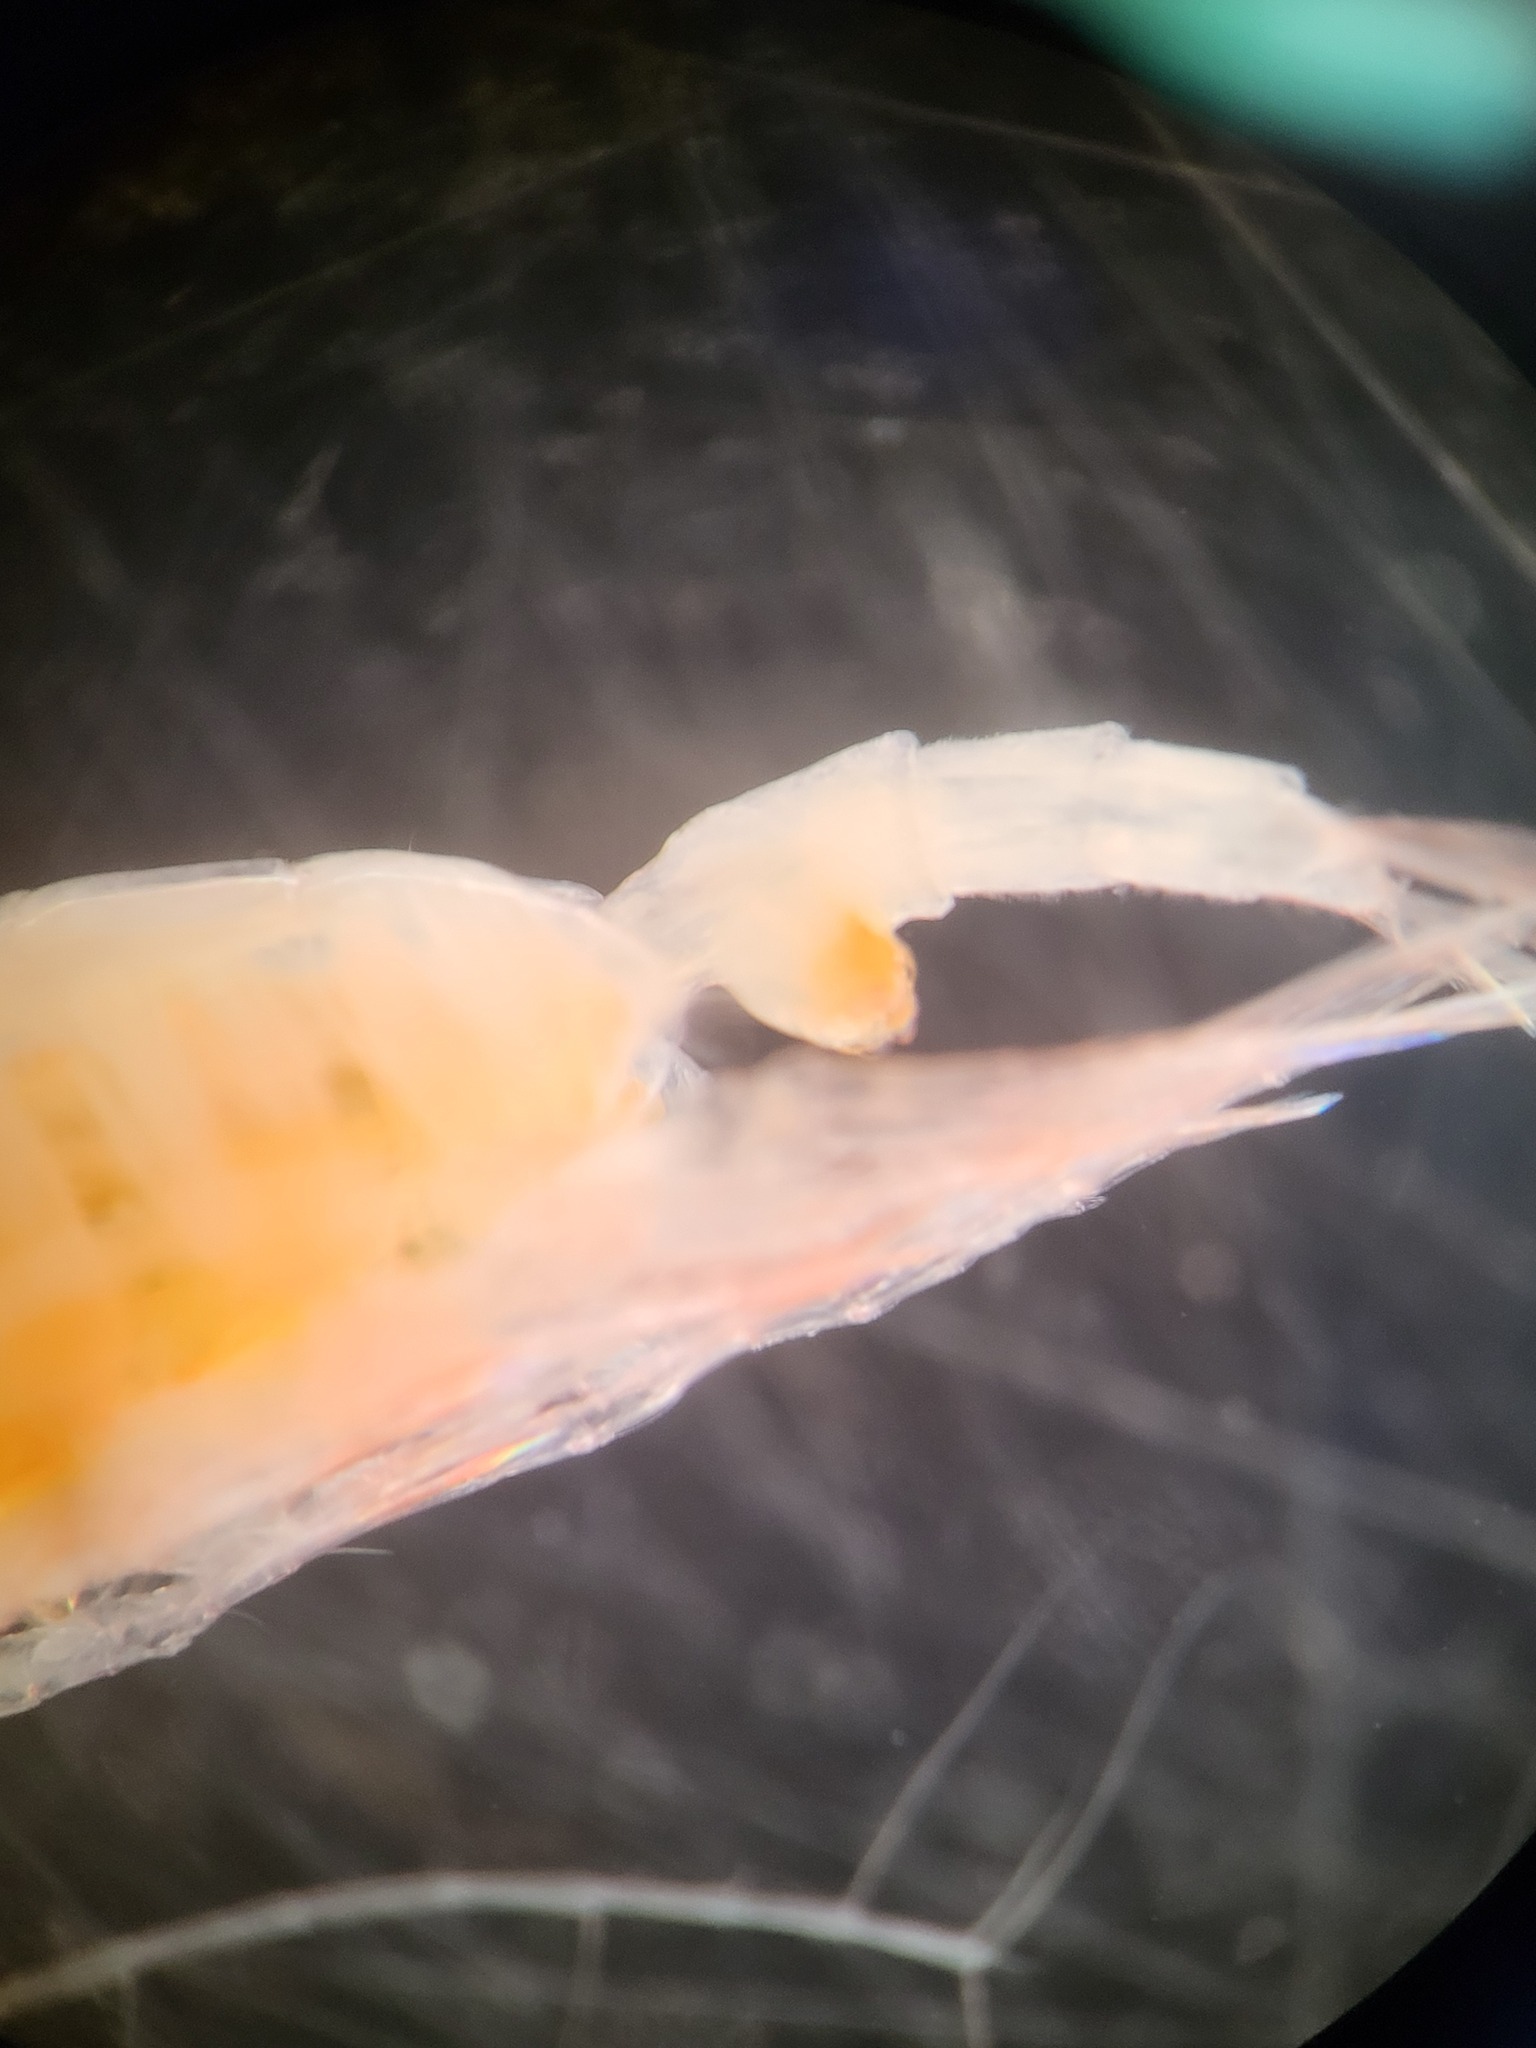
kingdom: Animalia
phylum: Arthropoda
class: Copepoda
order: Calanoida
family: Euchaetidae
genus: Paraeuchaeta
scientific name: Paraeuchaeta glacialis
